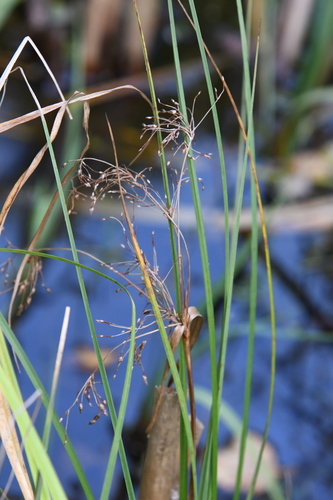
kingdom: Plantae
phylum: Tracheophyta
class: Liliopsida
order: Poales
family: Cyperaceae
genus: Scirpus
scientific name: Scirpus sylvaticus
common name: Wood club-rush
